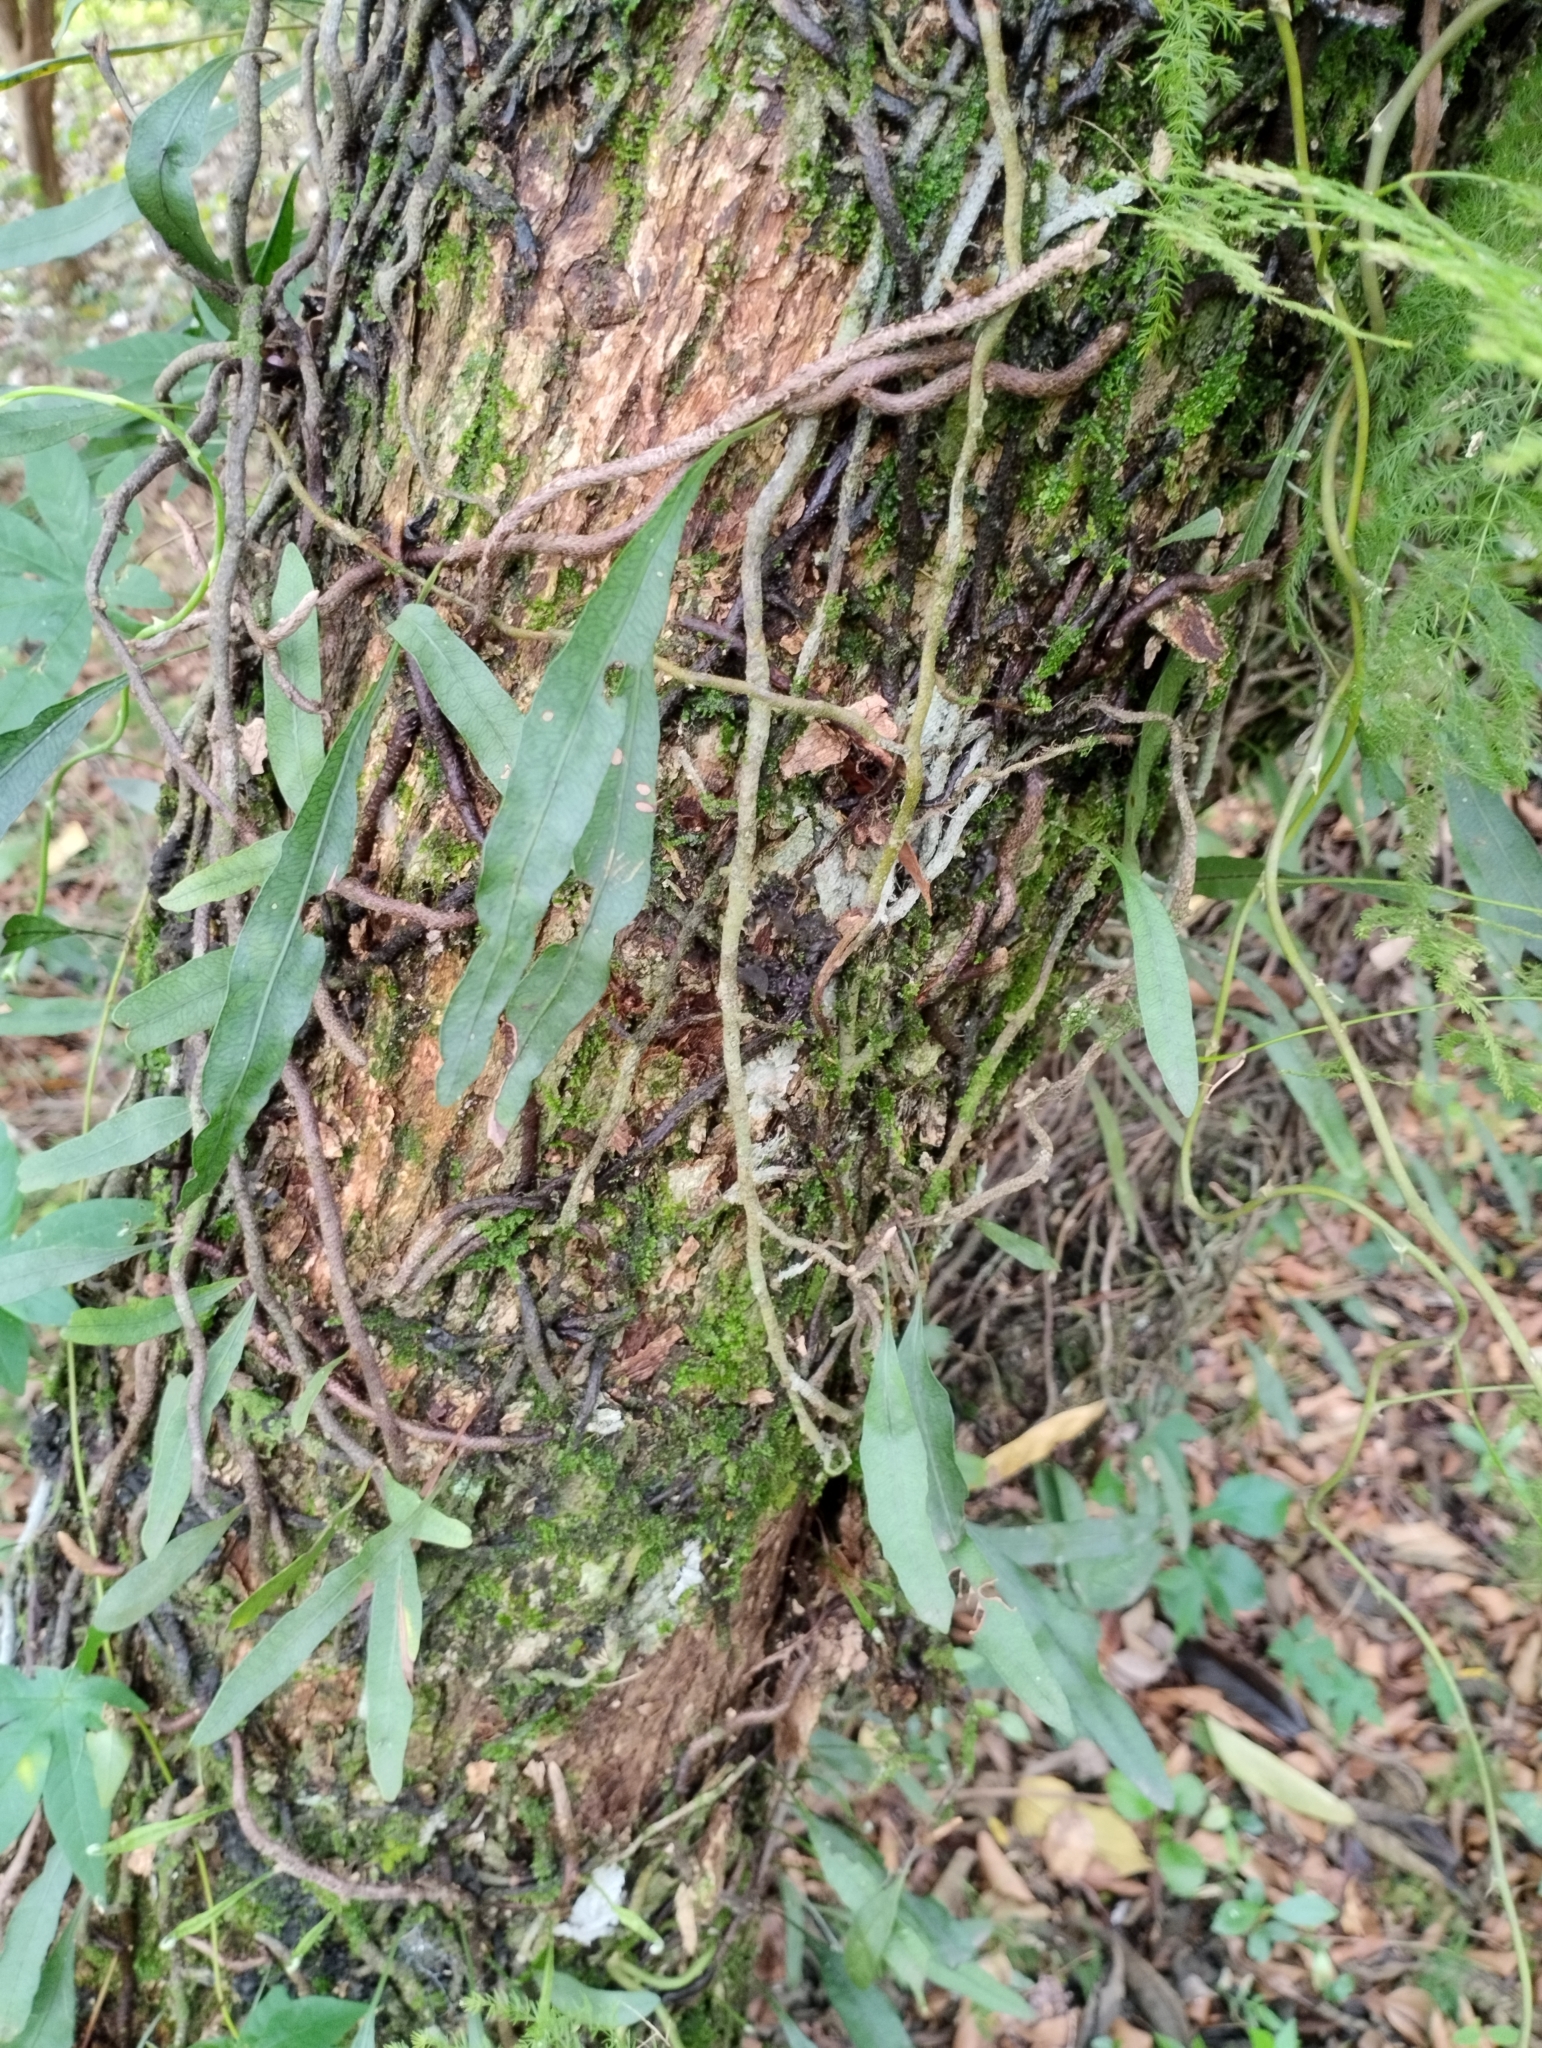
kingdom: Plantae
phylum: Tracheophyta
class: Polypodiopsida
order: Polypodiales
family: Polypodiaceae
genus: Microgramma
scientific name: Microgramma squamulosa
